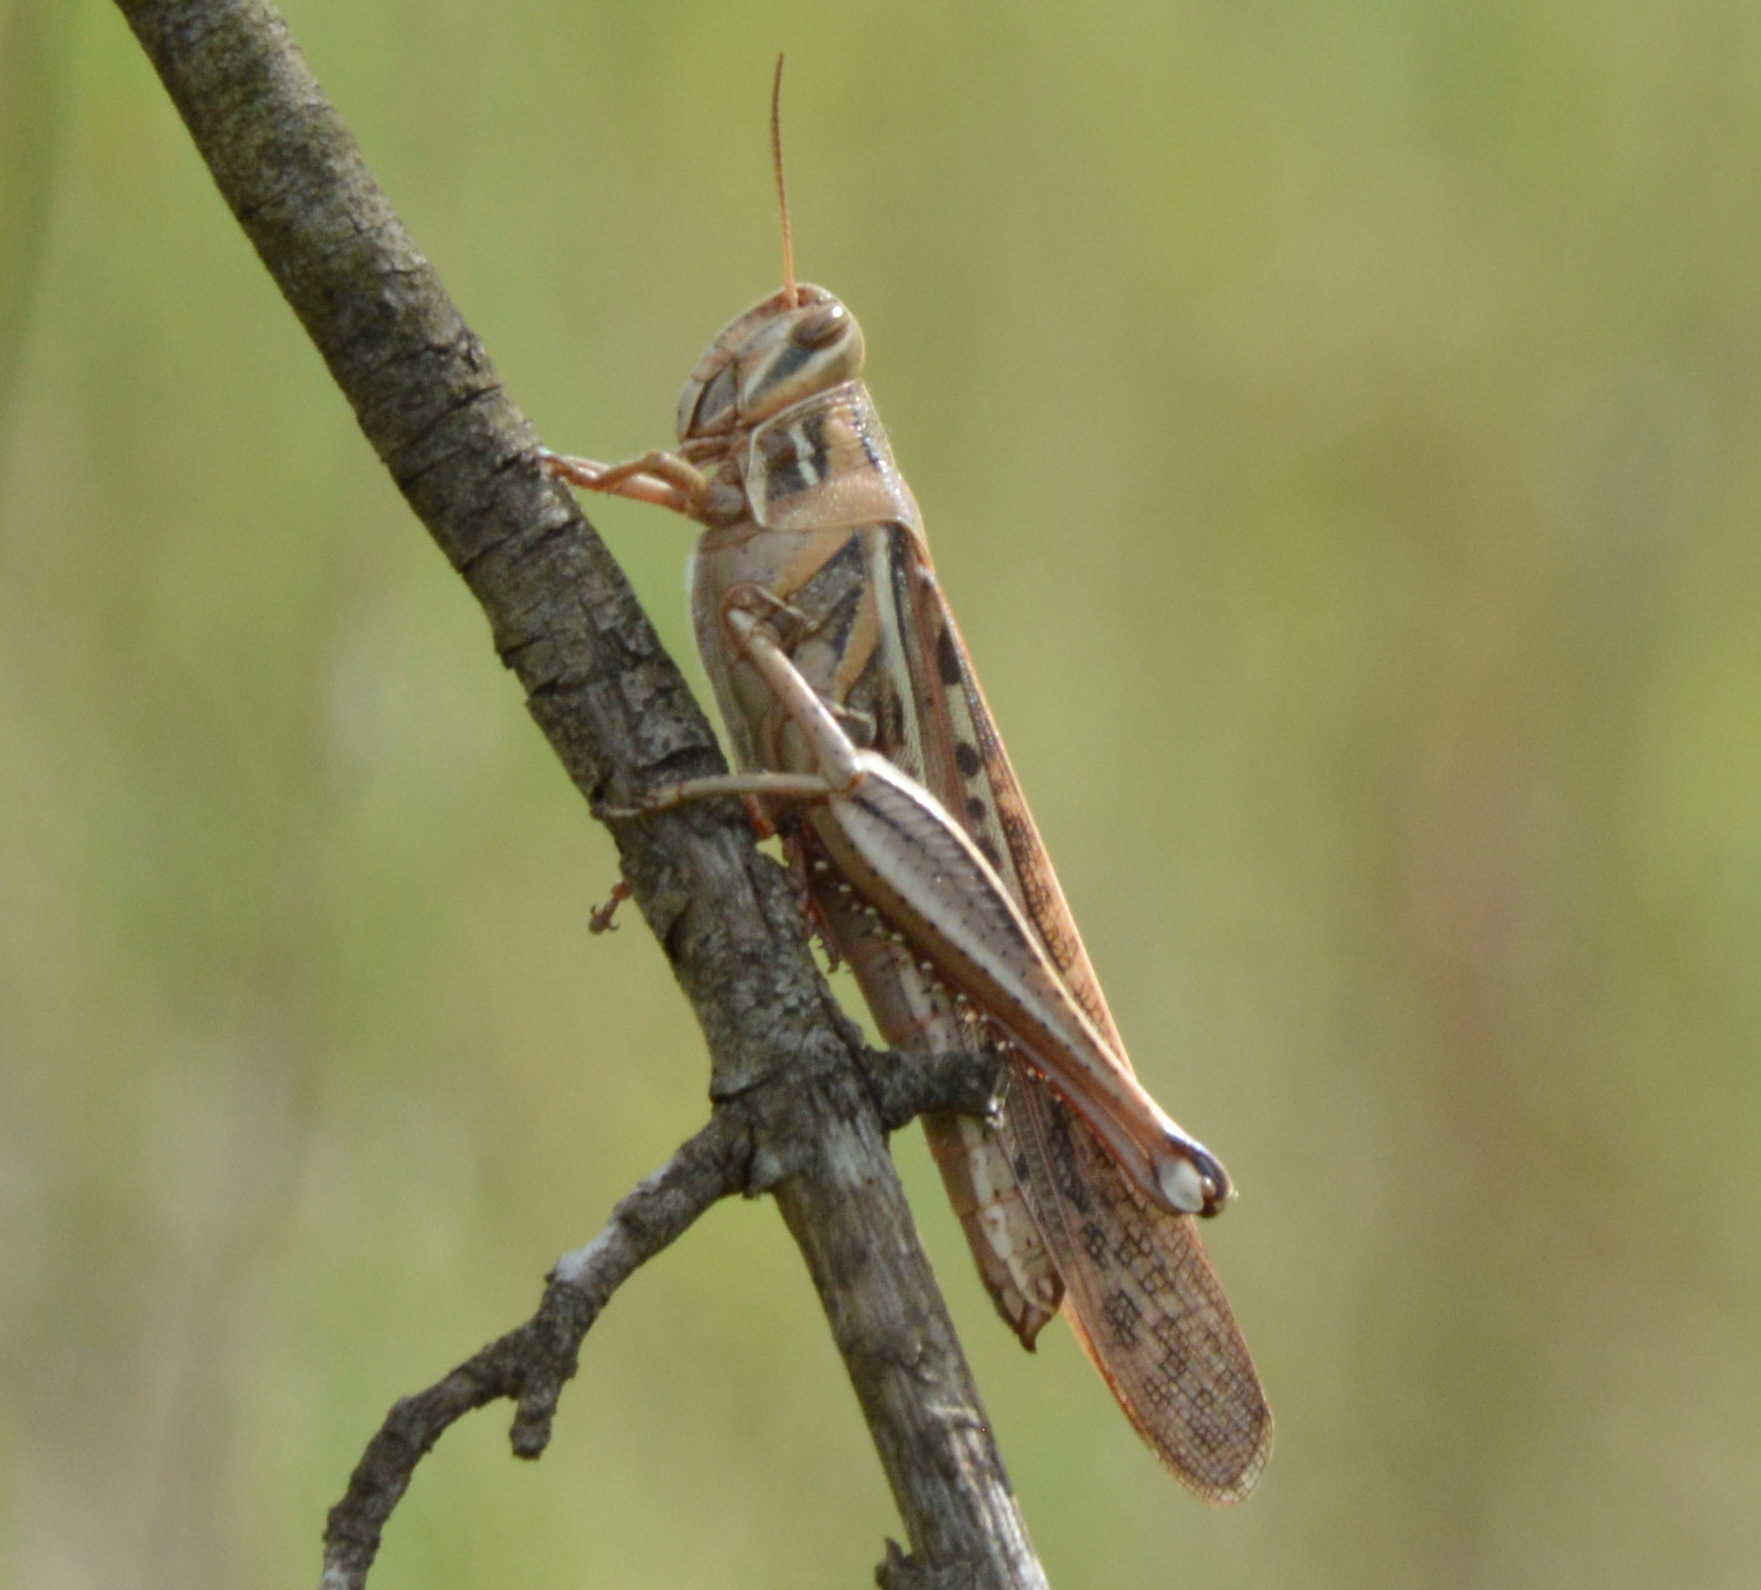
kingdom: Animalia
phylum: Arthropoda
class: Insecta
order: Orthoptera
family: Acrididae
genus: Schistocerca
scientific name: Schistocerca americana
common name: American bird locust
